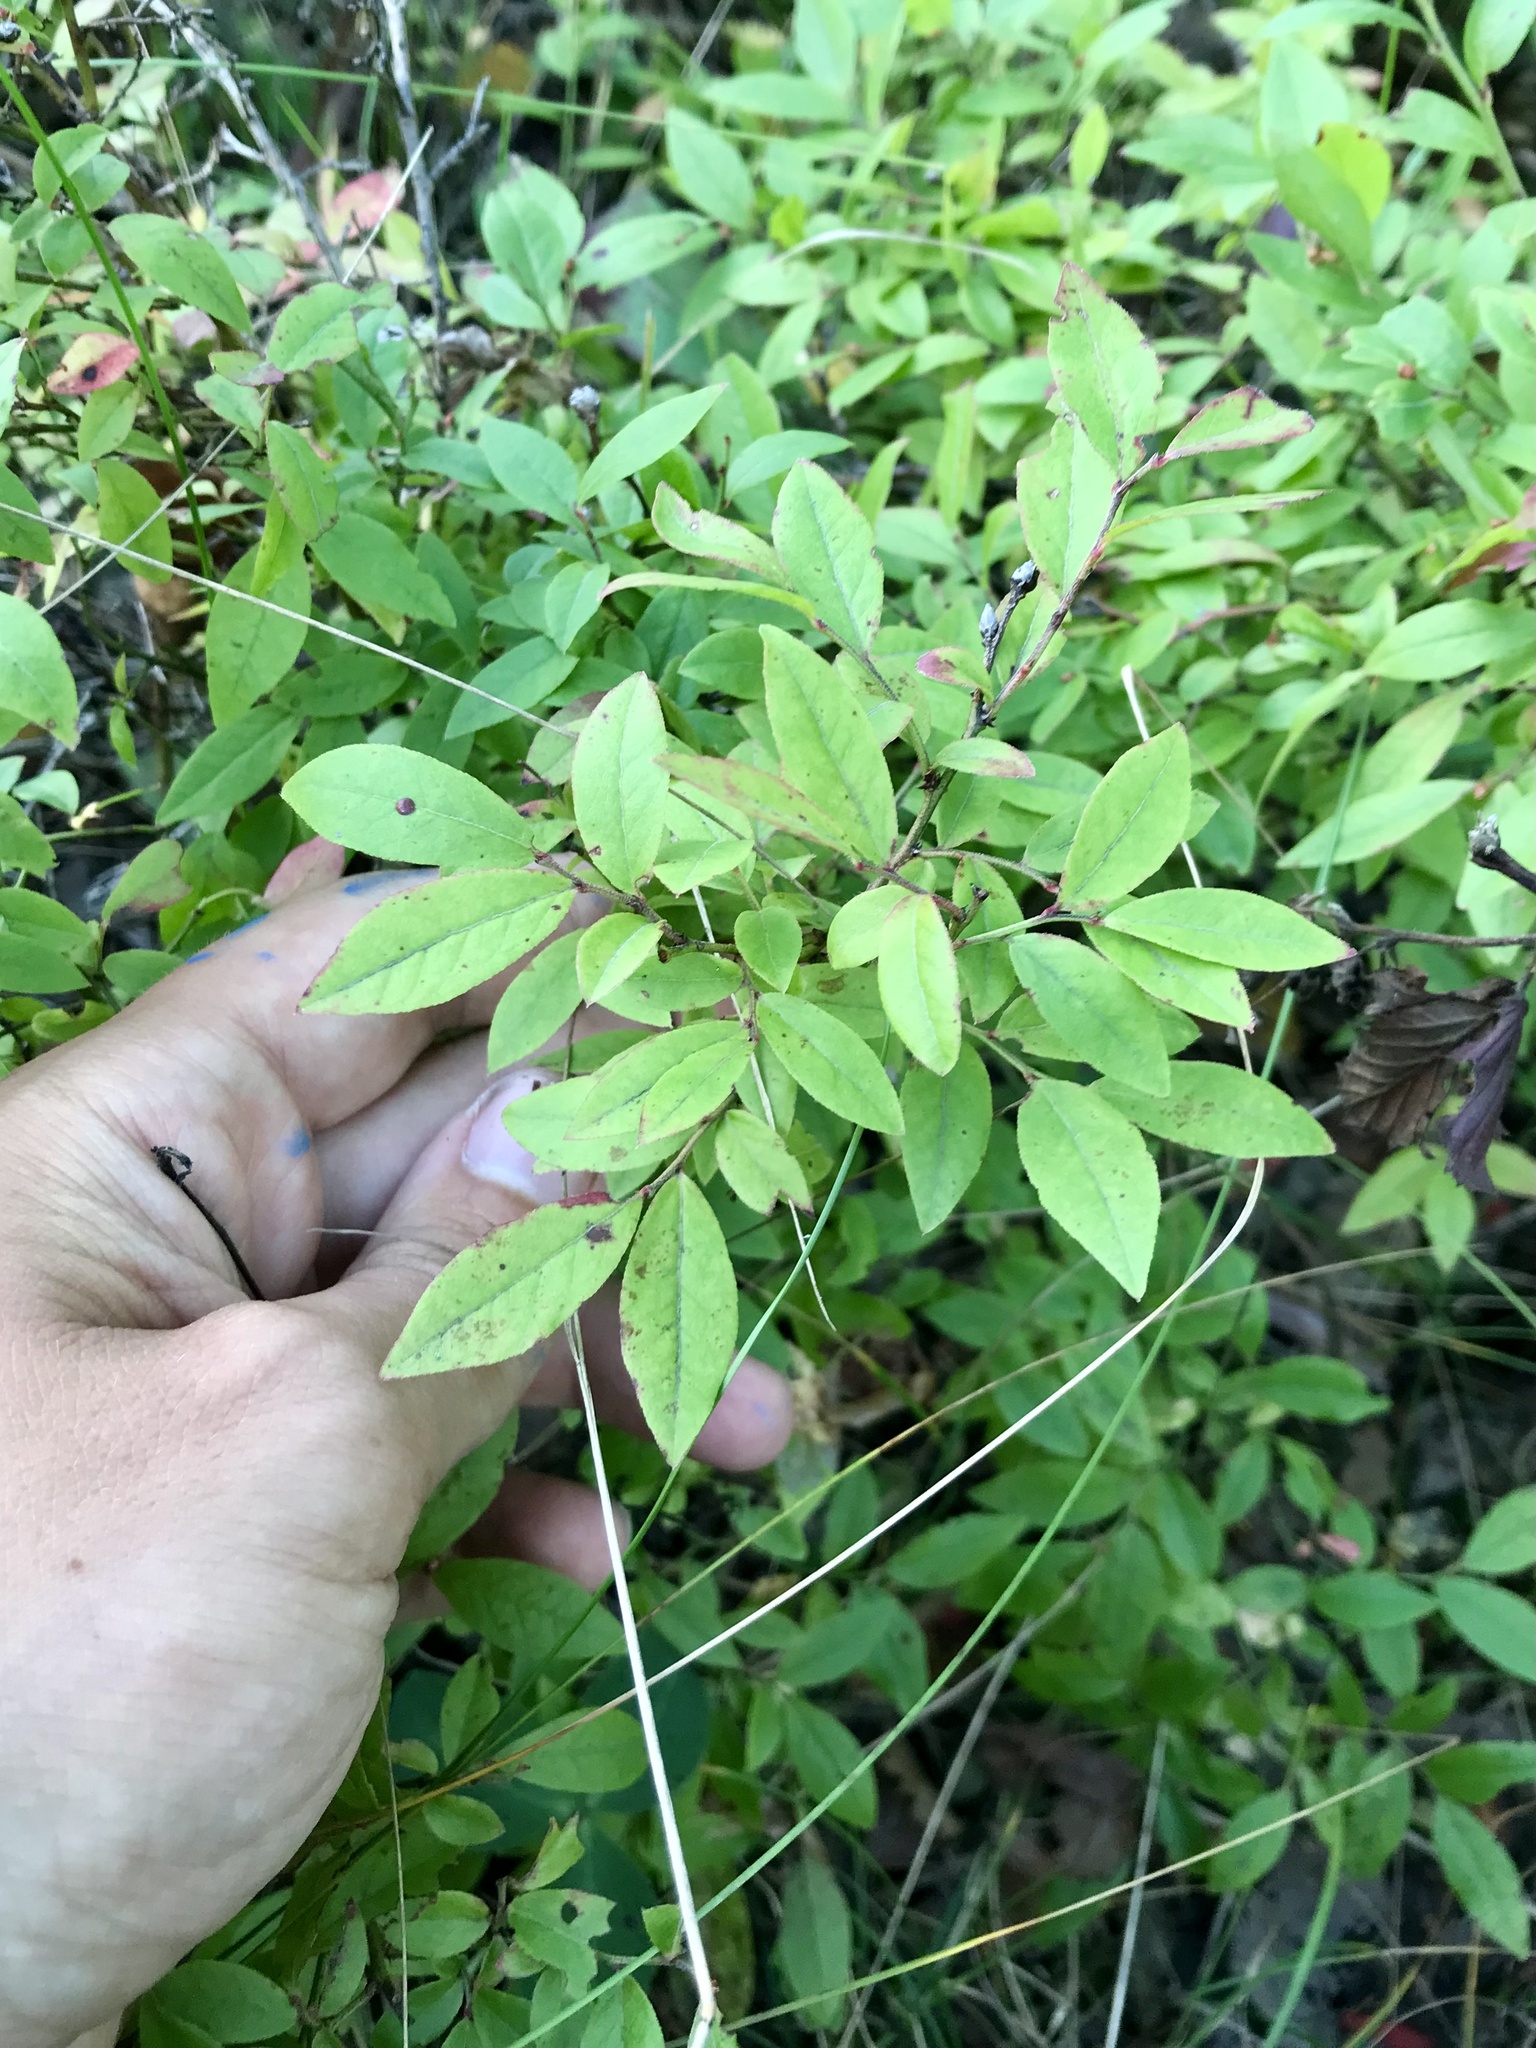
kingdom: Plantae
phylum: Tracheophyta
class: Magnoliopsida
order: Ericales
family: Ericaceae
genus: Vaccinium
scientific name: Vaccinium angustifolium
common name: Early lowbush blueberry
